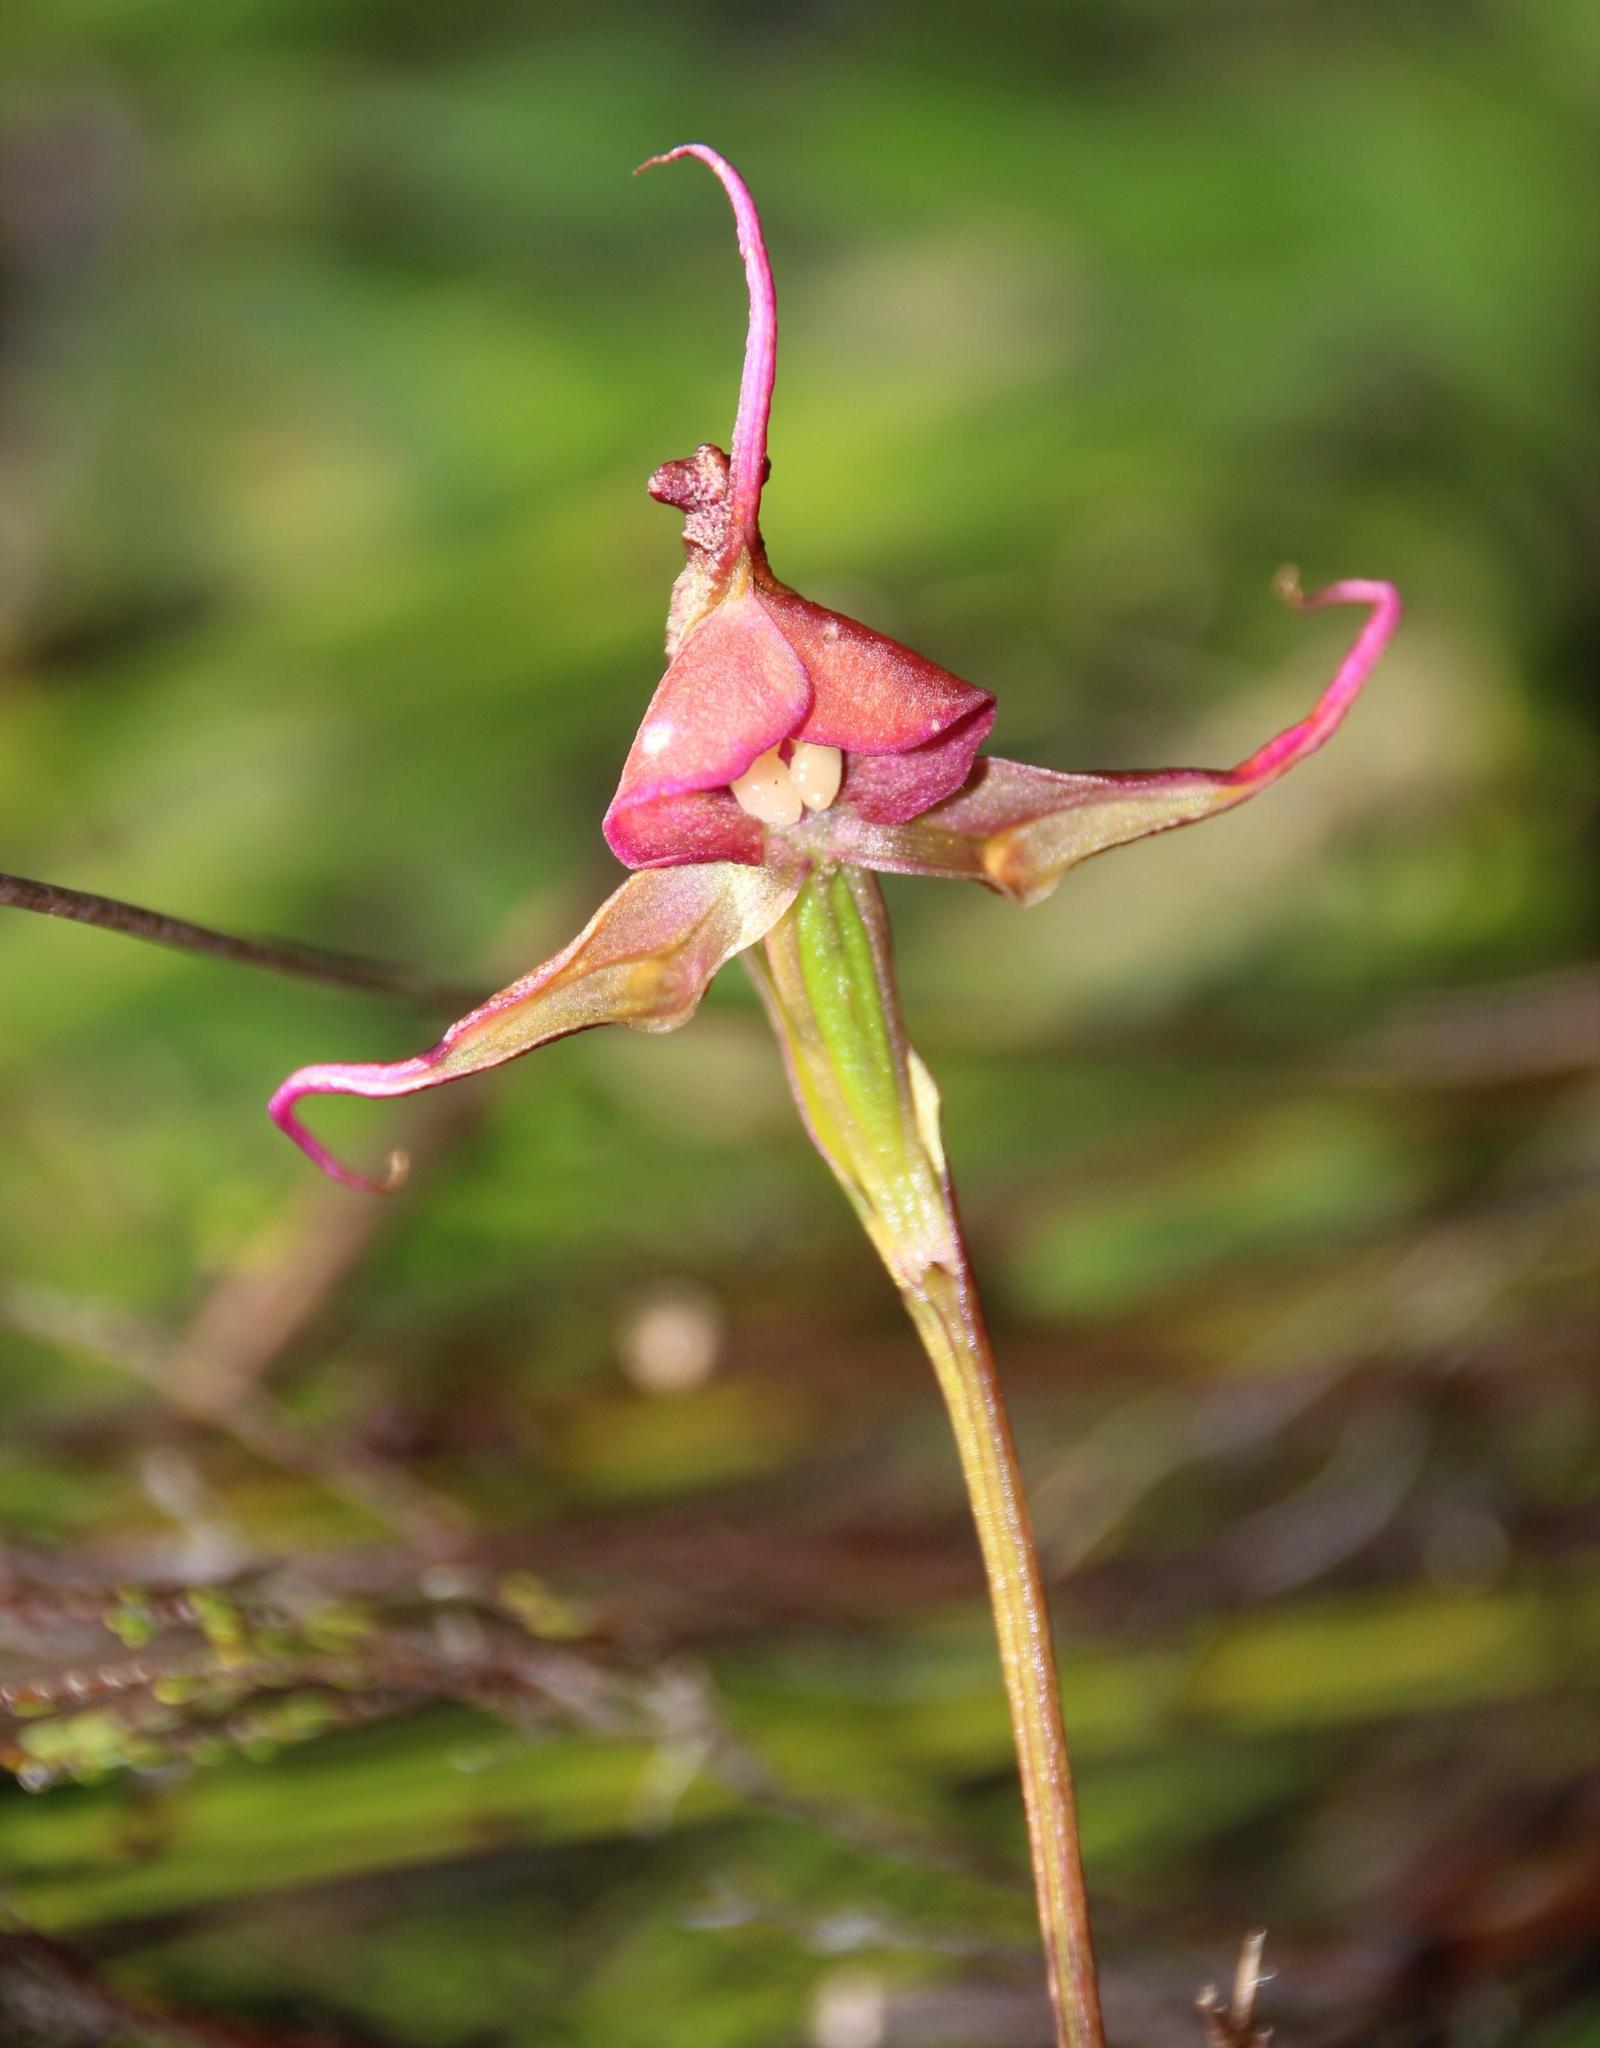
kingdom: Plantae
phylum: Tracheophyta
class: Liliopsida
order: Asparagales
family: Orchidaceae
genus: Disperis
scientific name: Disperis capensis
